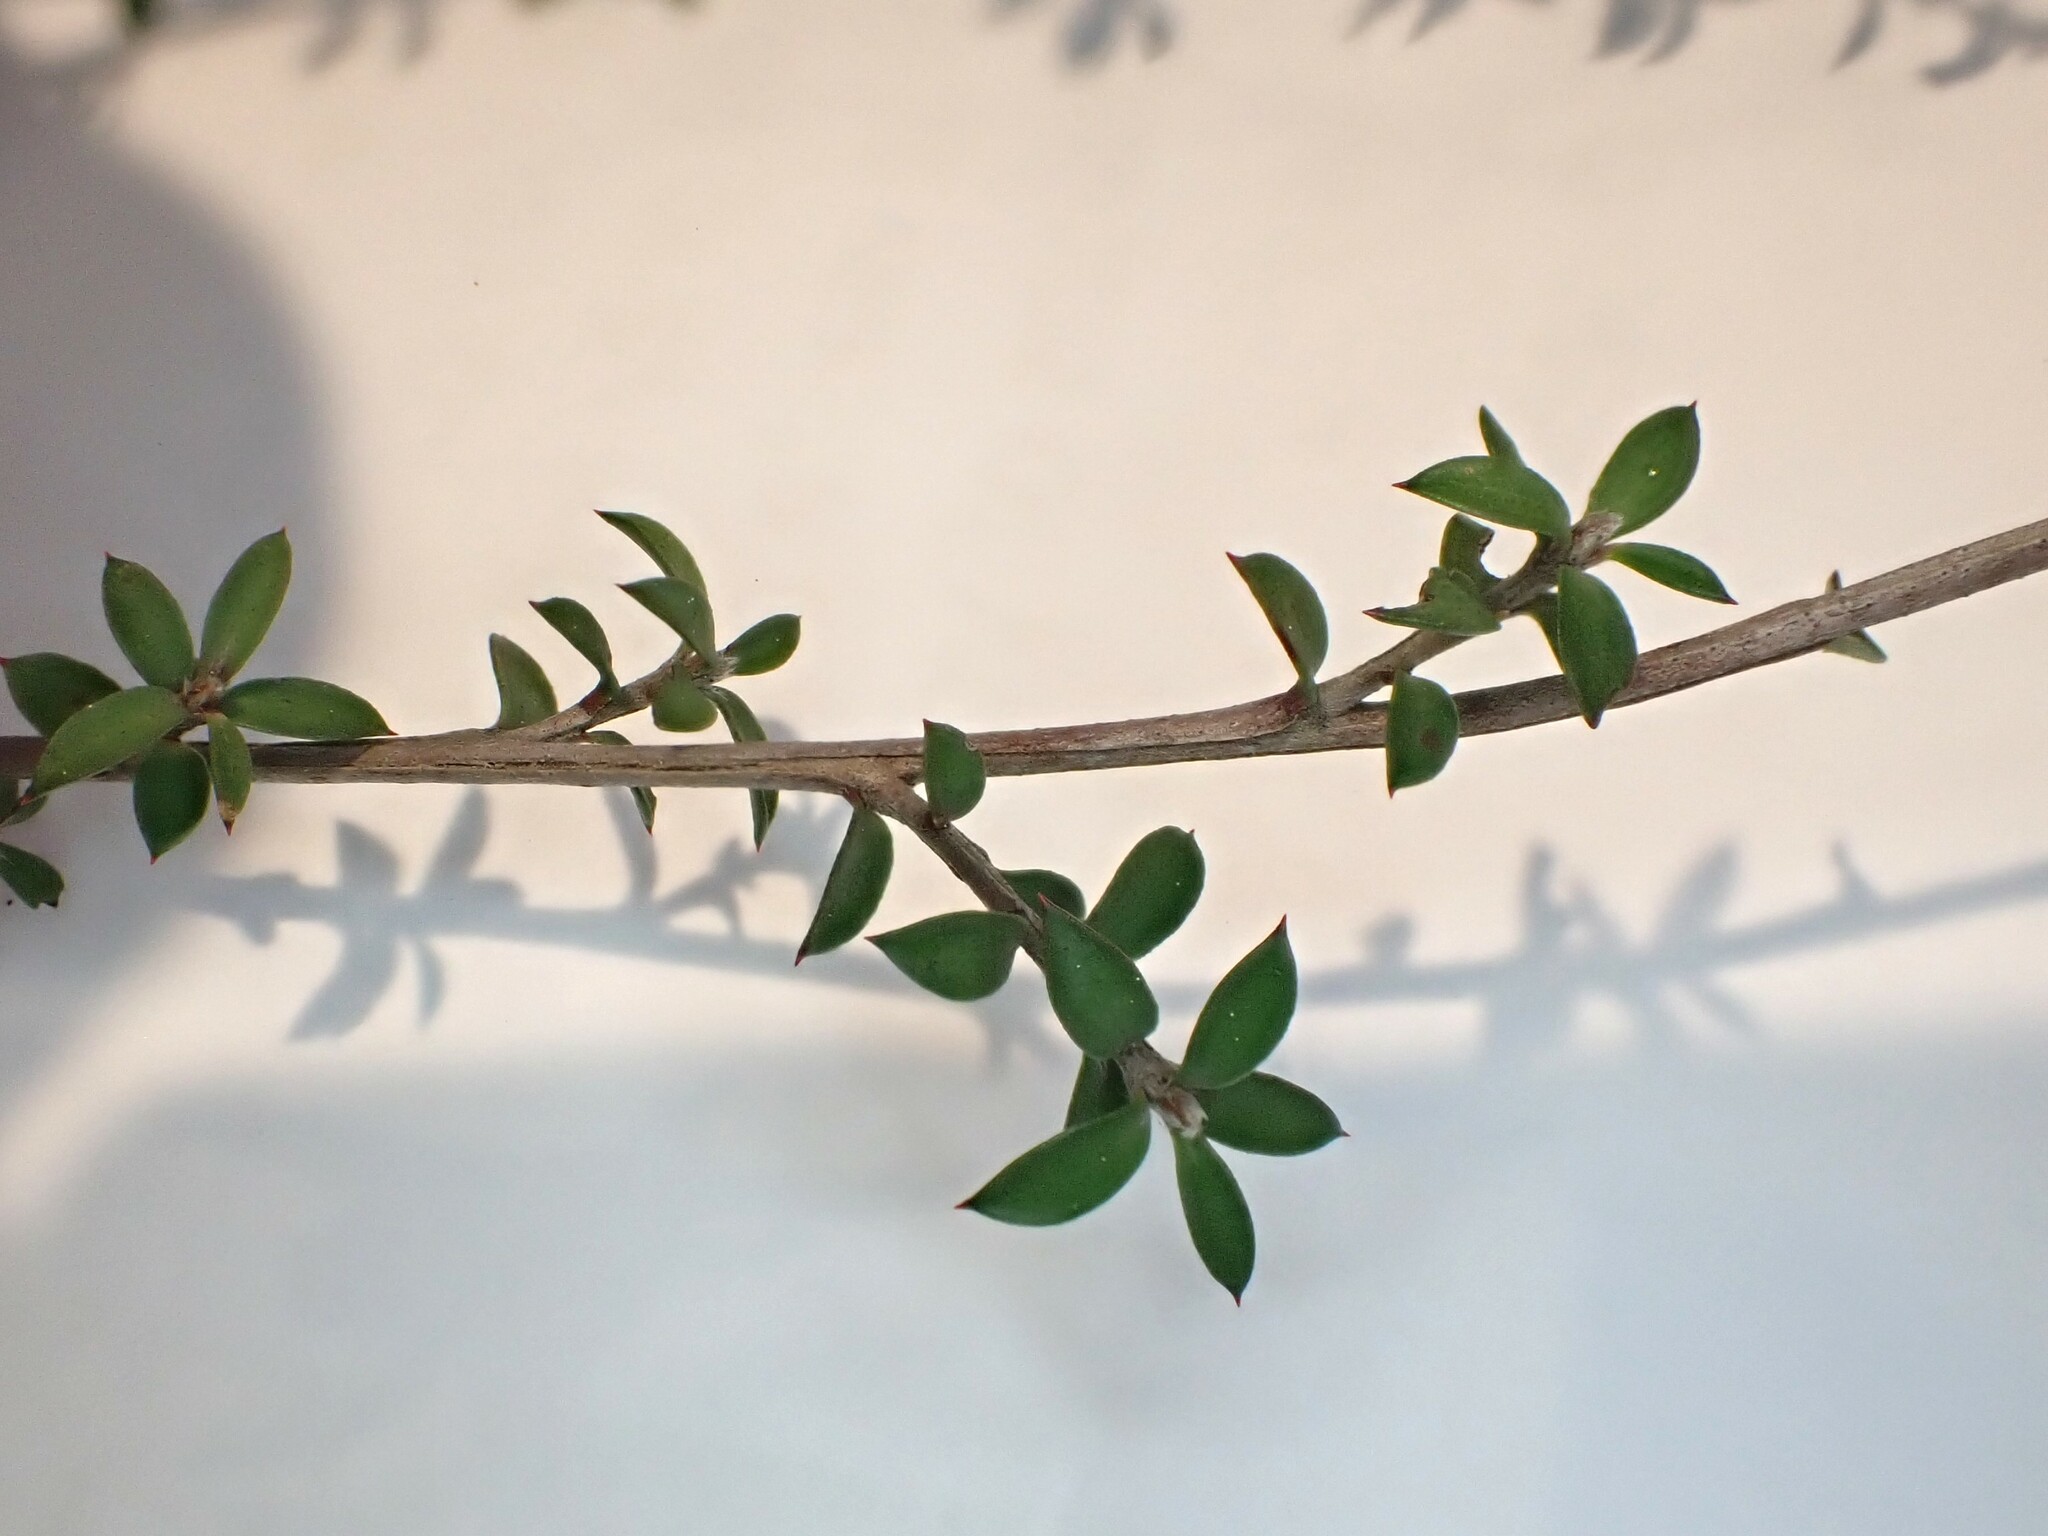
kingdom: Plantae
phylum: Tracheophyta
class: Magnoliopsida
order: Myrtales
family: Myrtaceae
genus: Leptospermum
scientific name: Leptospermum scoparium
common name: Broom tea-tree
